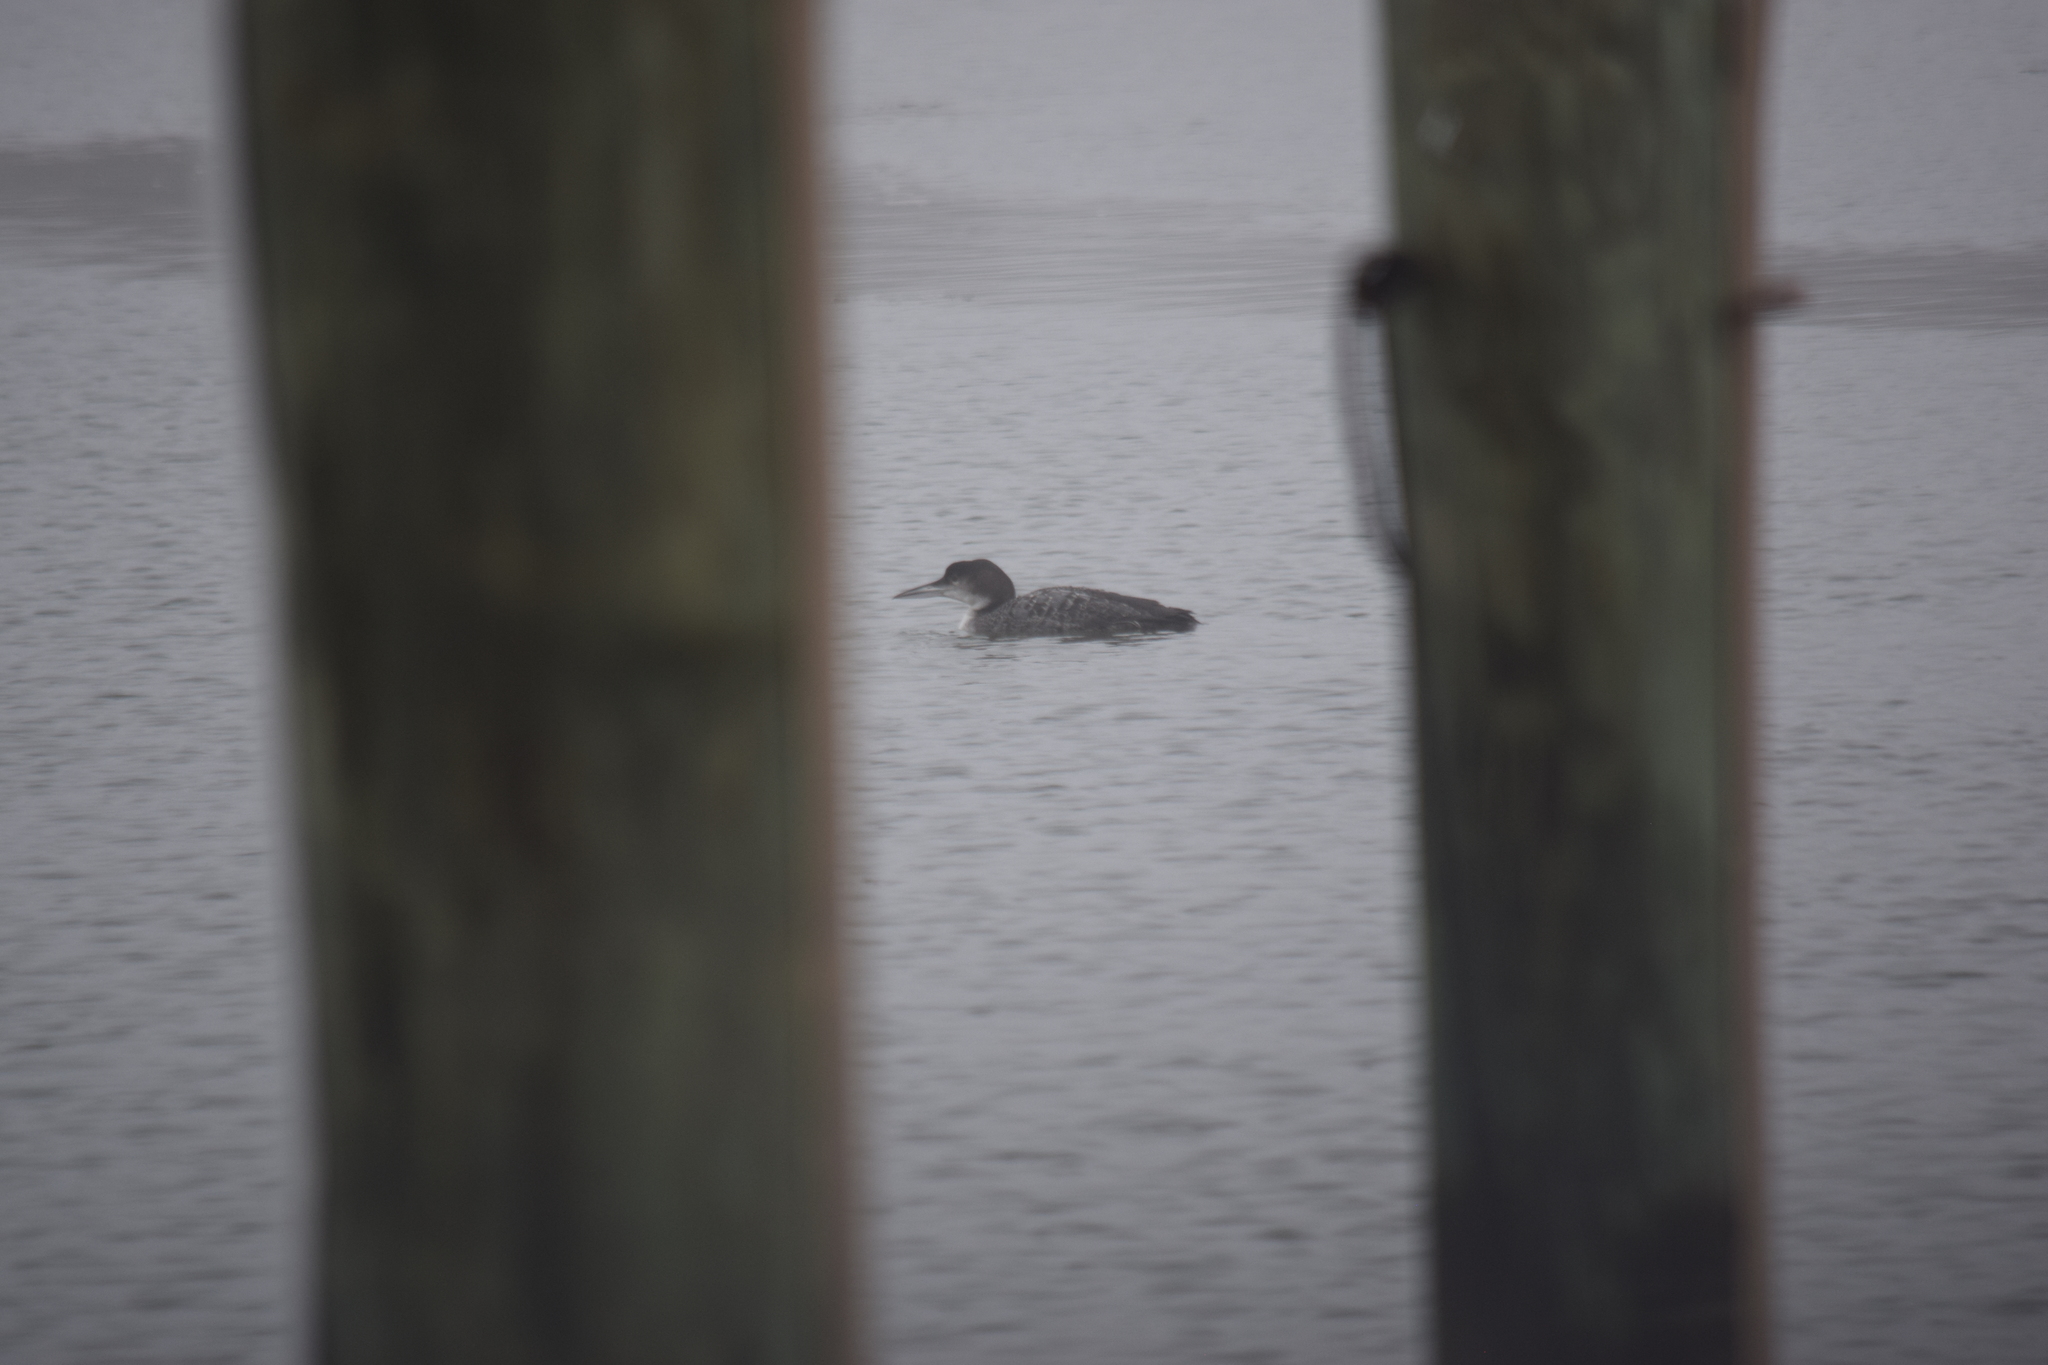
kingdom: Animalia
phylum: Chordata
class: Aves
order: Gaviiformes
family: Gaviidae
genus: Gavia
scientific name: Gavia immer
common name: Common loon
